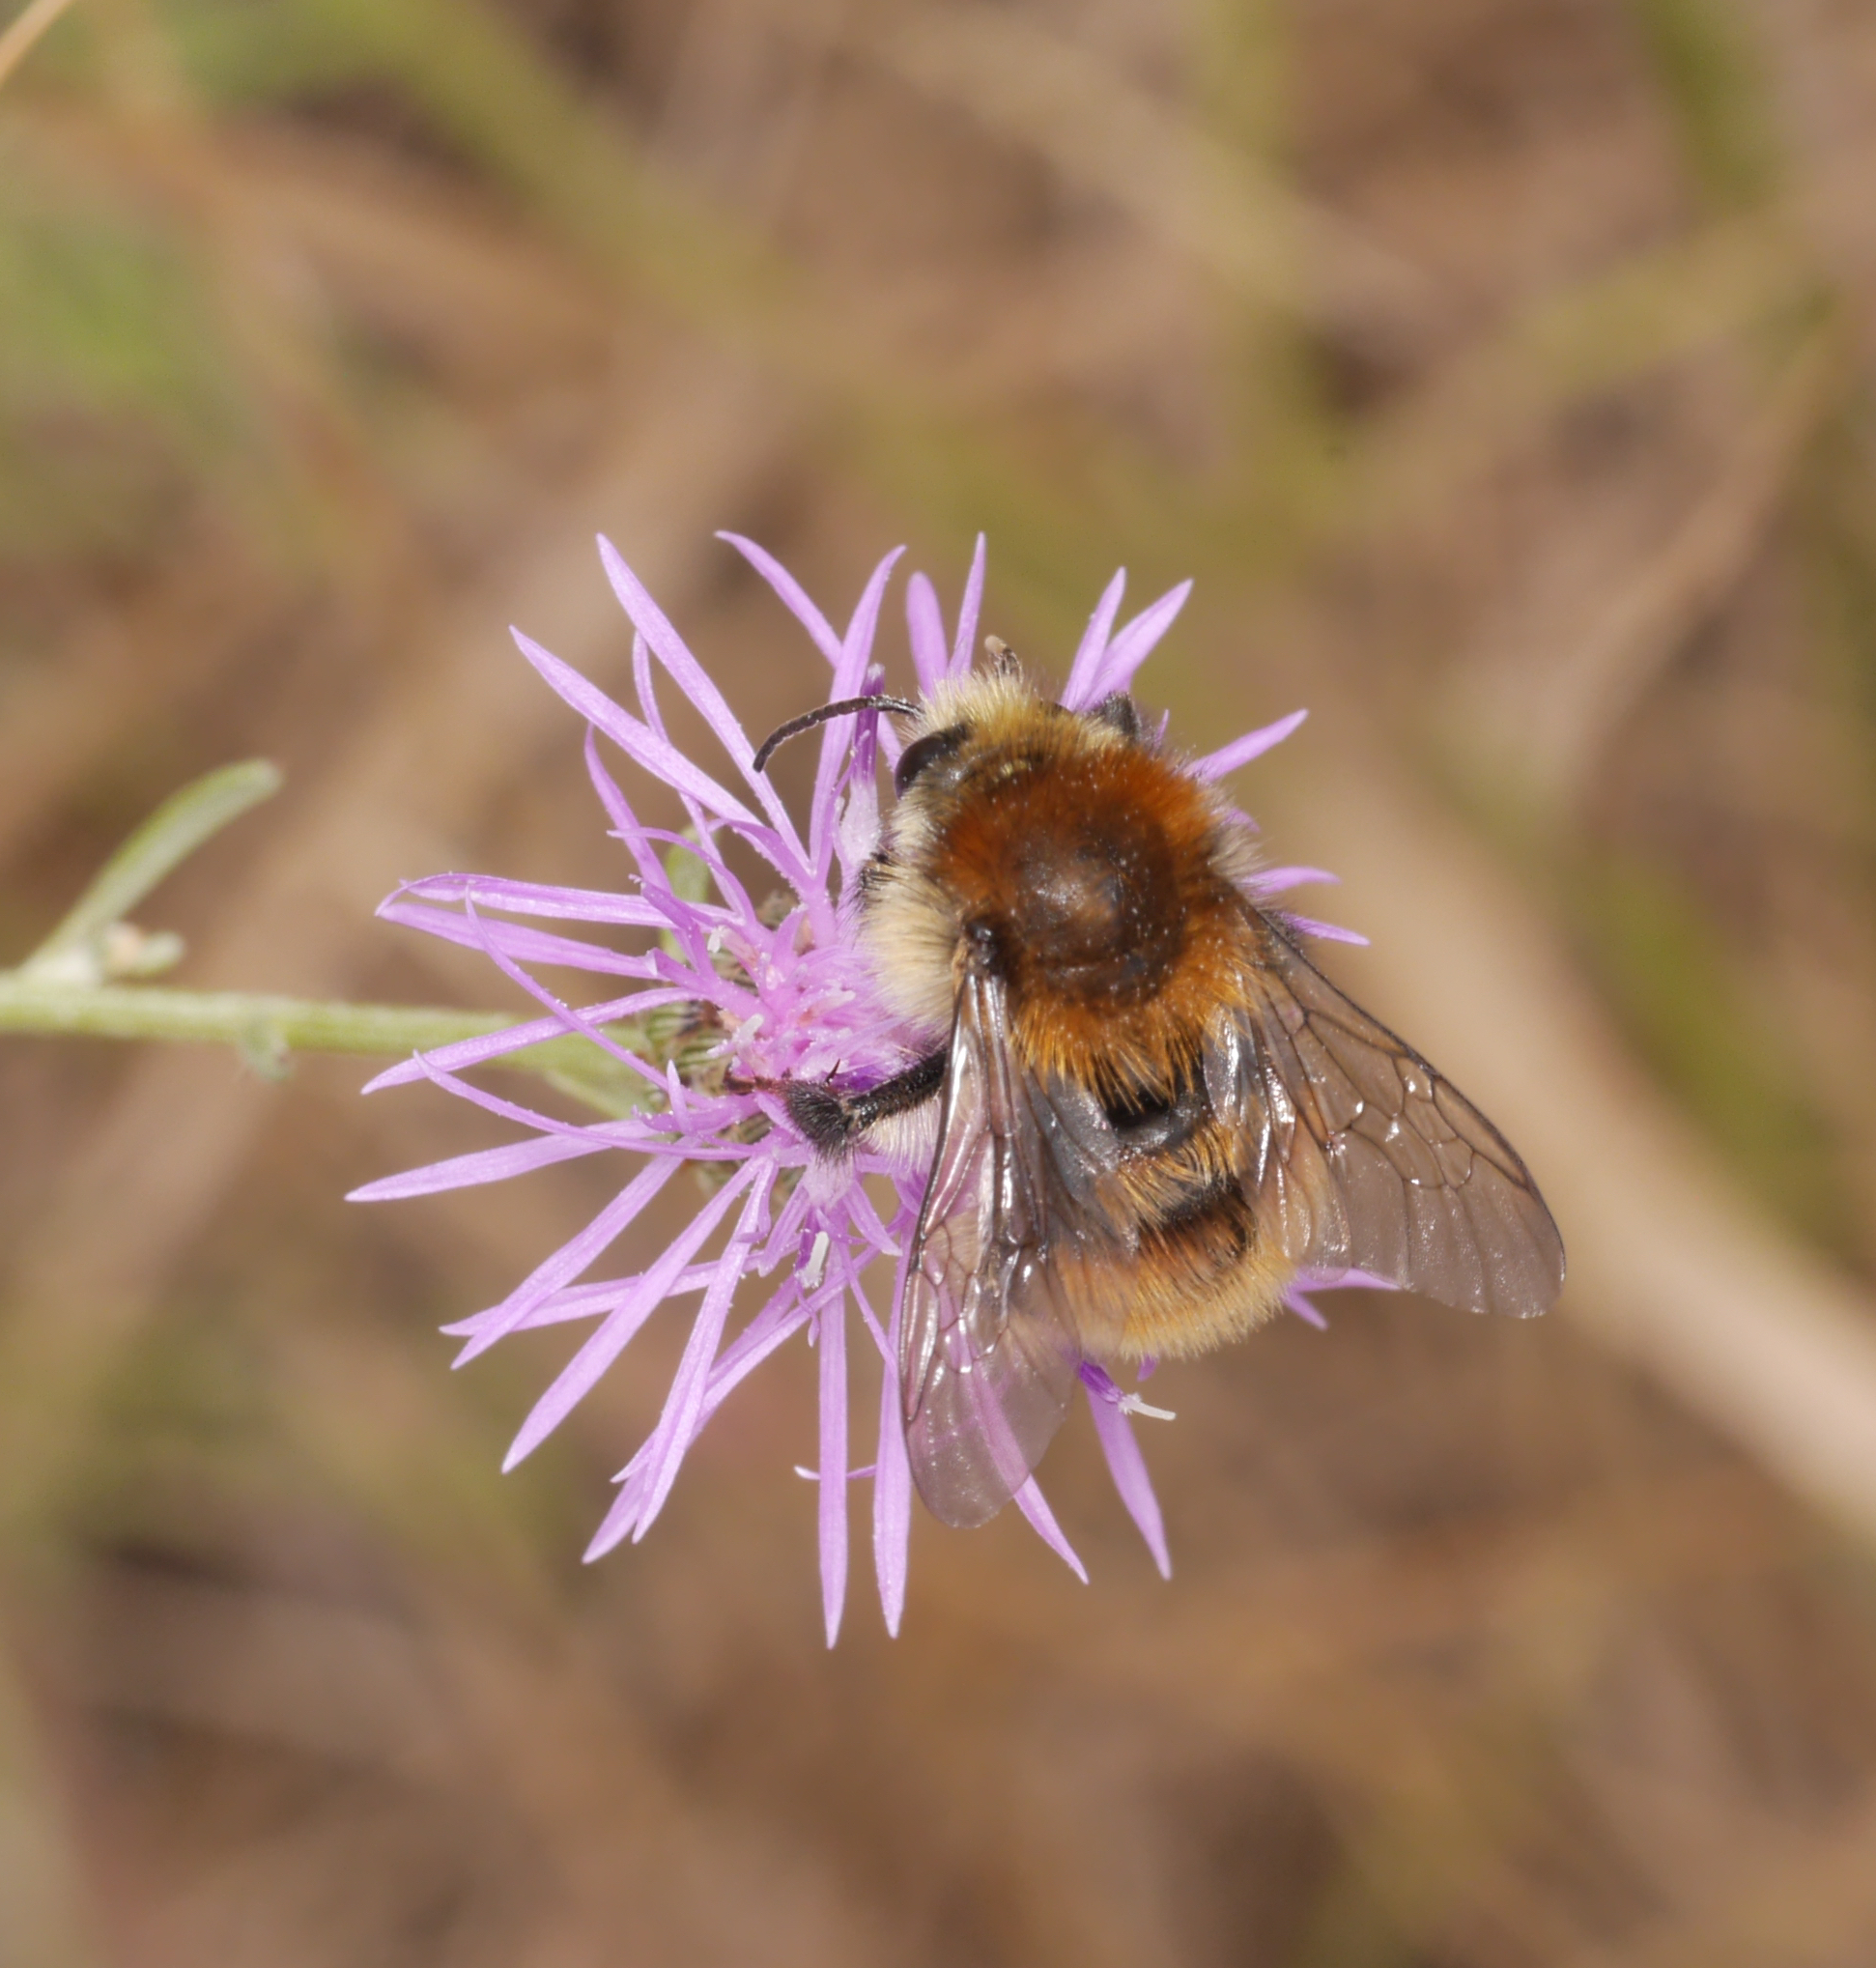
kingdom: Animalia
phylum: Arthropoda
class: Insecta
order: Hymenoptera
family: Apidae
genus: Bombus
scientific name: Bombus humilis
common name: Brown-banded carder-bee
